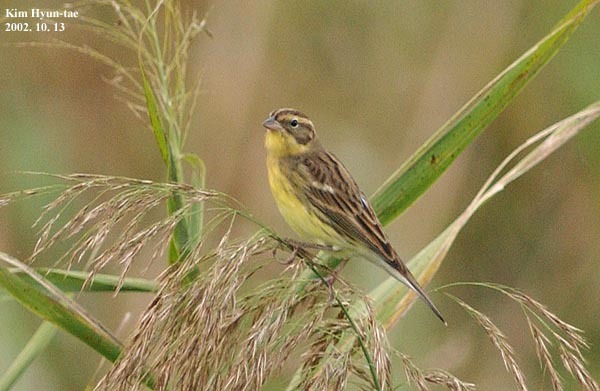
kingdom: Animalia
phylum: Chordata
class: Aves
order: Passeriformes
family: Emberizidae
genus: Emberiza
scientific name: Emberiza aureola
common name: Yellow-breasted bunting
